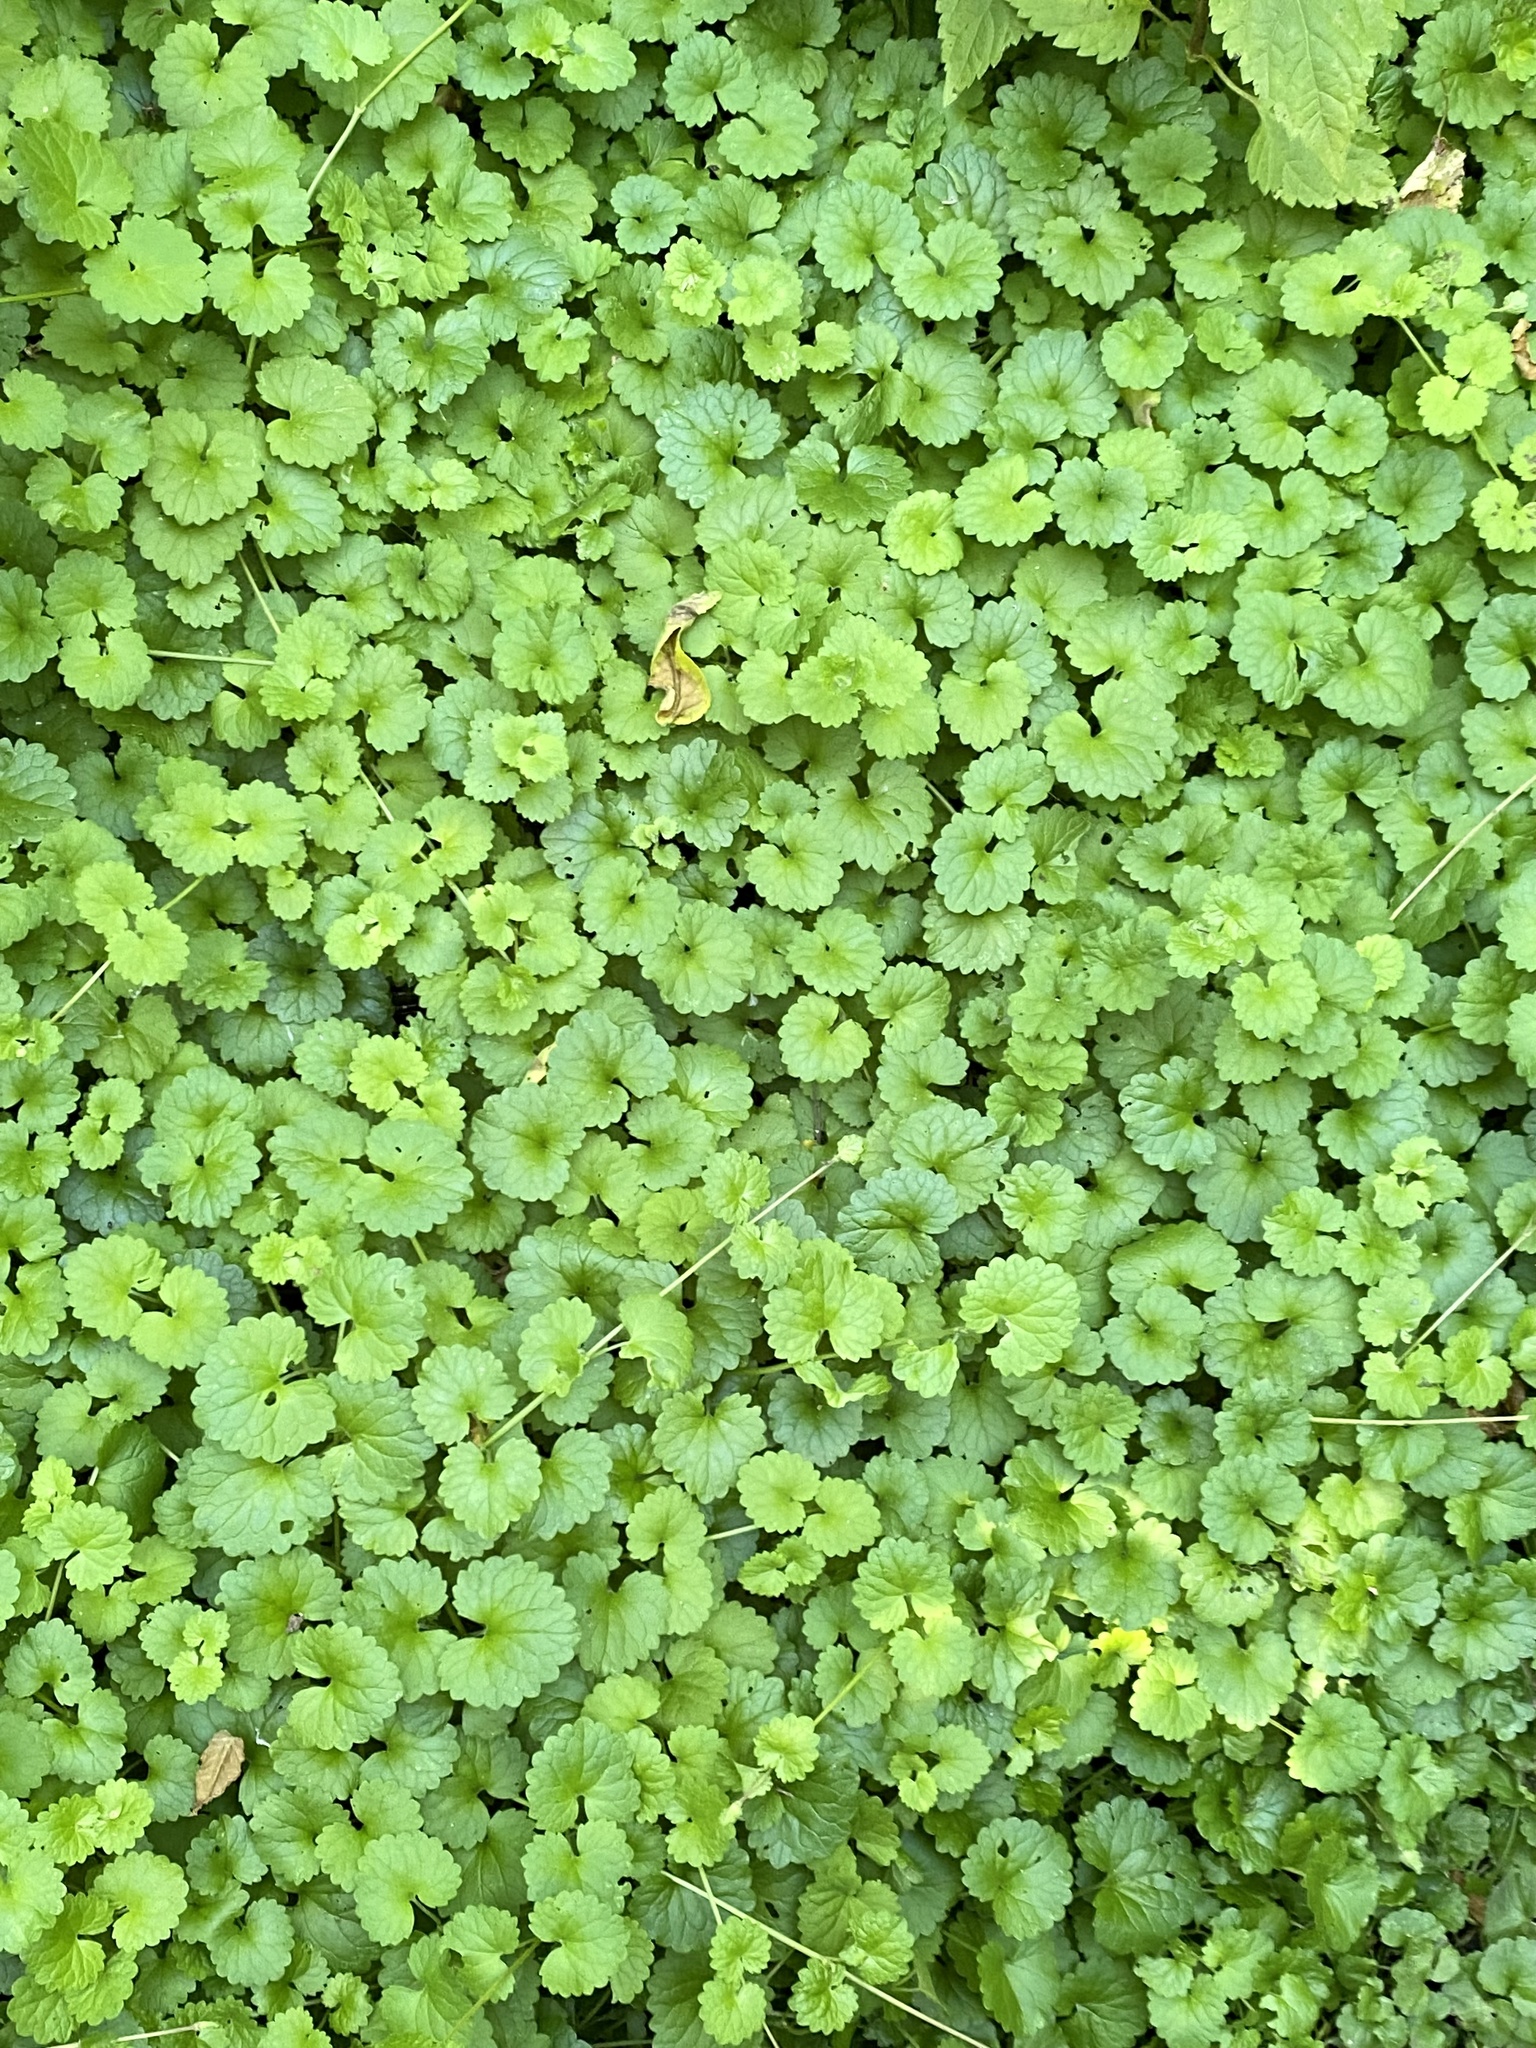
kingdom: Plantae
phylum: Tracheophyta
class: Magnoliopsida
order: Lamiales
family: Lamiaceae
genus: Glechoma
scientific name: Glechoma hederacea
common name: Ground ivy
